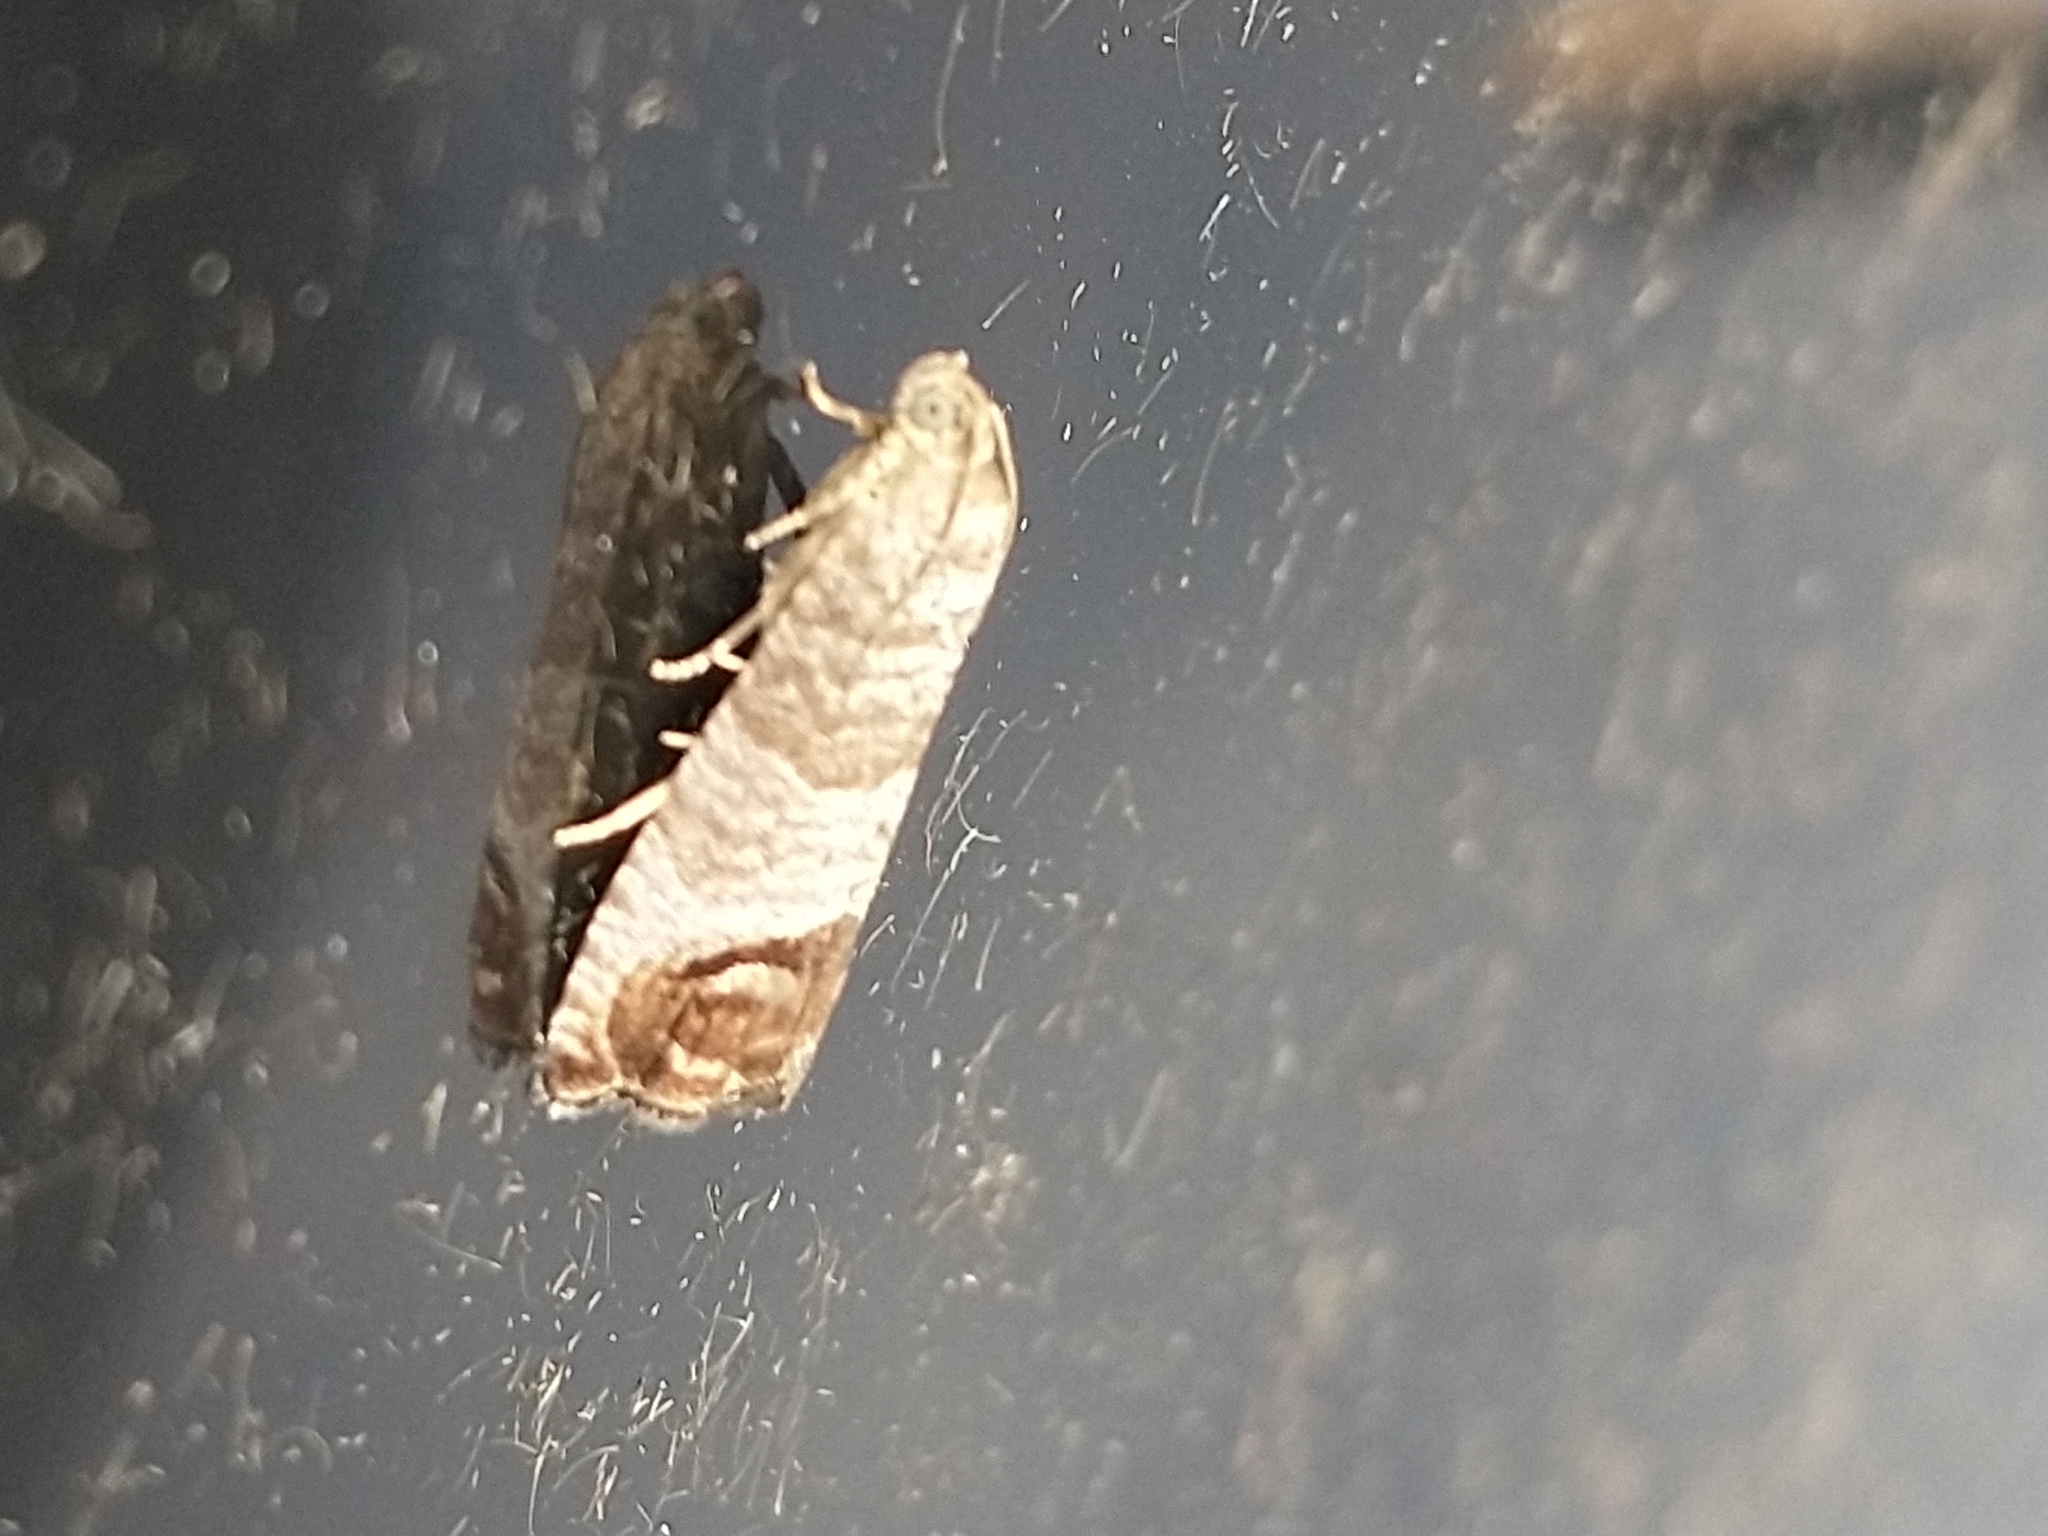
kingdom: Animalia
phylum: Arthropoda
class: Insecta
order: Lepidoptera
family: Tortricidae
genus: Cydia
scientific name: Cydia pomonella
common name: Codling moth
